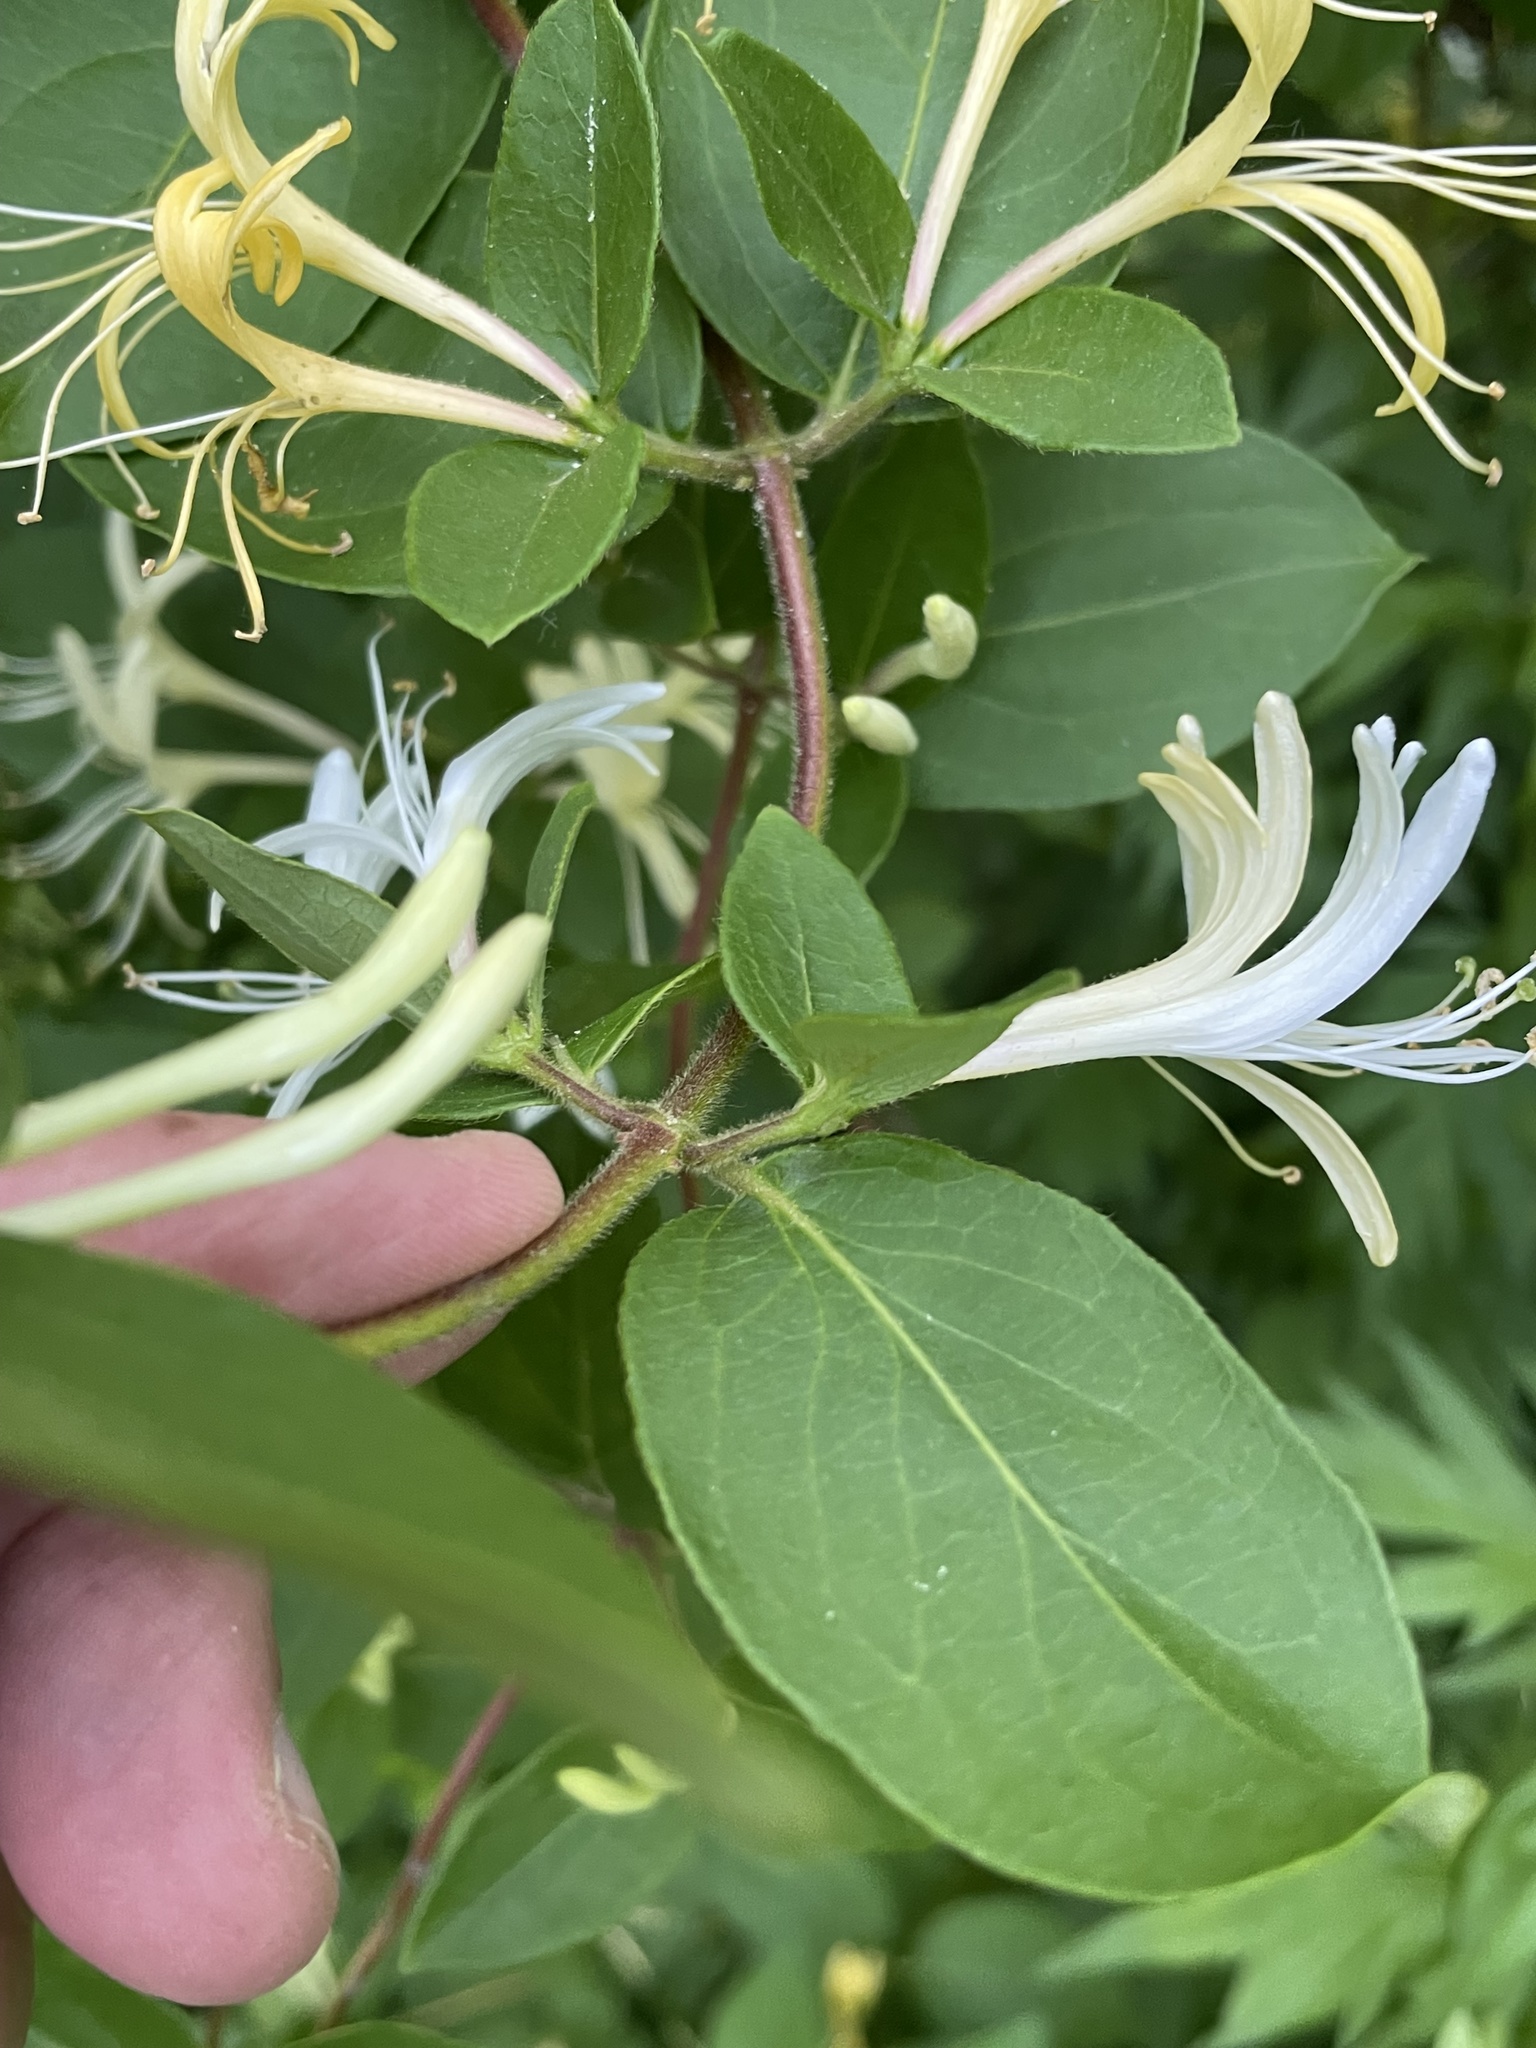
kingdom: Plantae
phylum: Tracheophyta
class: Magnoliopsida
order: Dipsacales
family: Caprifoliaceae
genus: Lonicera
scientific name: Lonicera japonica
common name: Japanese honeysuckle
